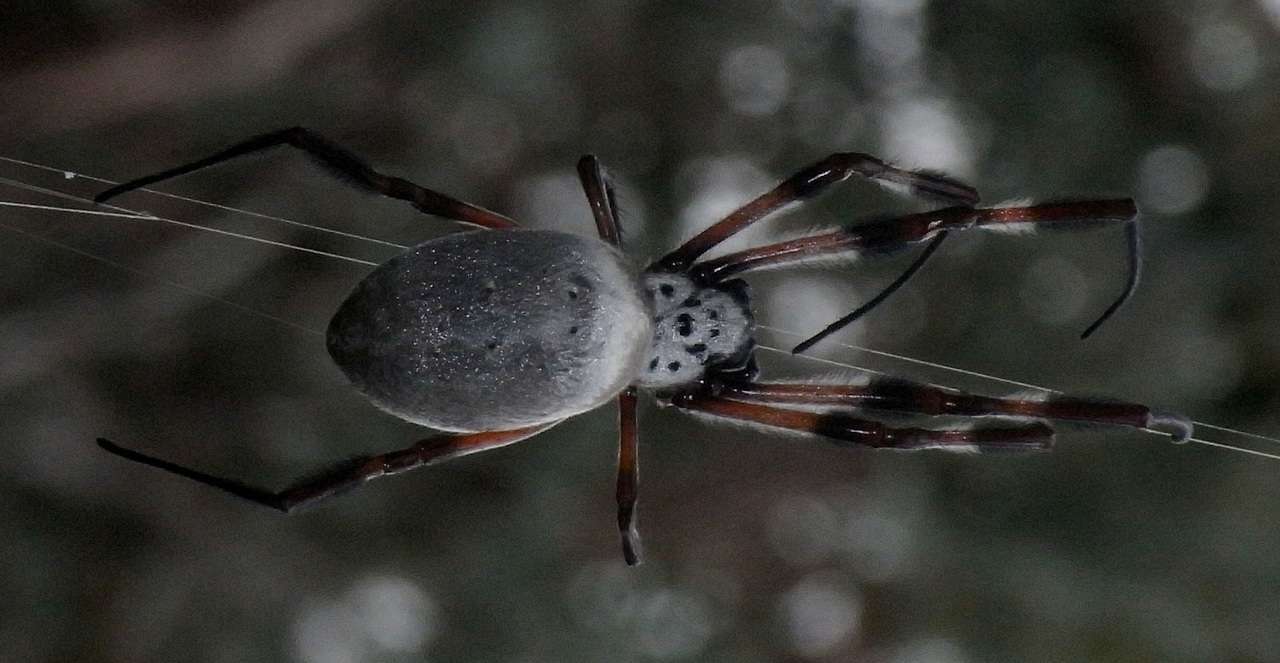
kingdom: Animalia
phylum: Arthropoda
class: Arachnida
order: Araneae
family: Araneidae
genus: Trichonephila
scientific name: Trichonephila edulis
